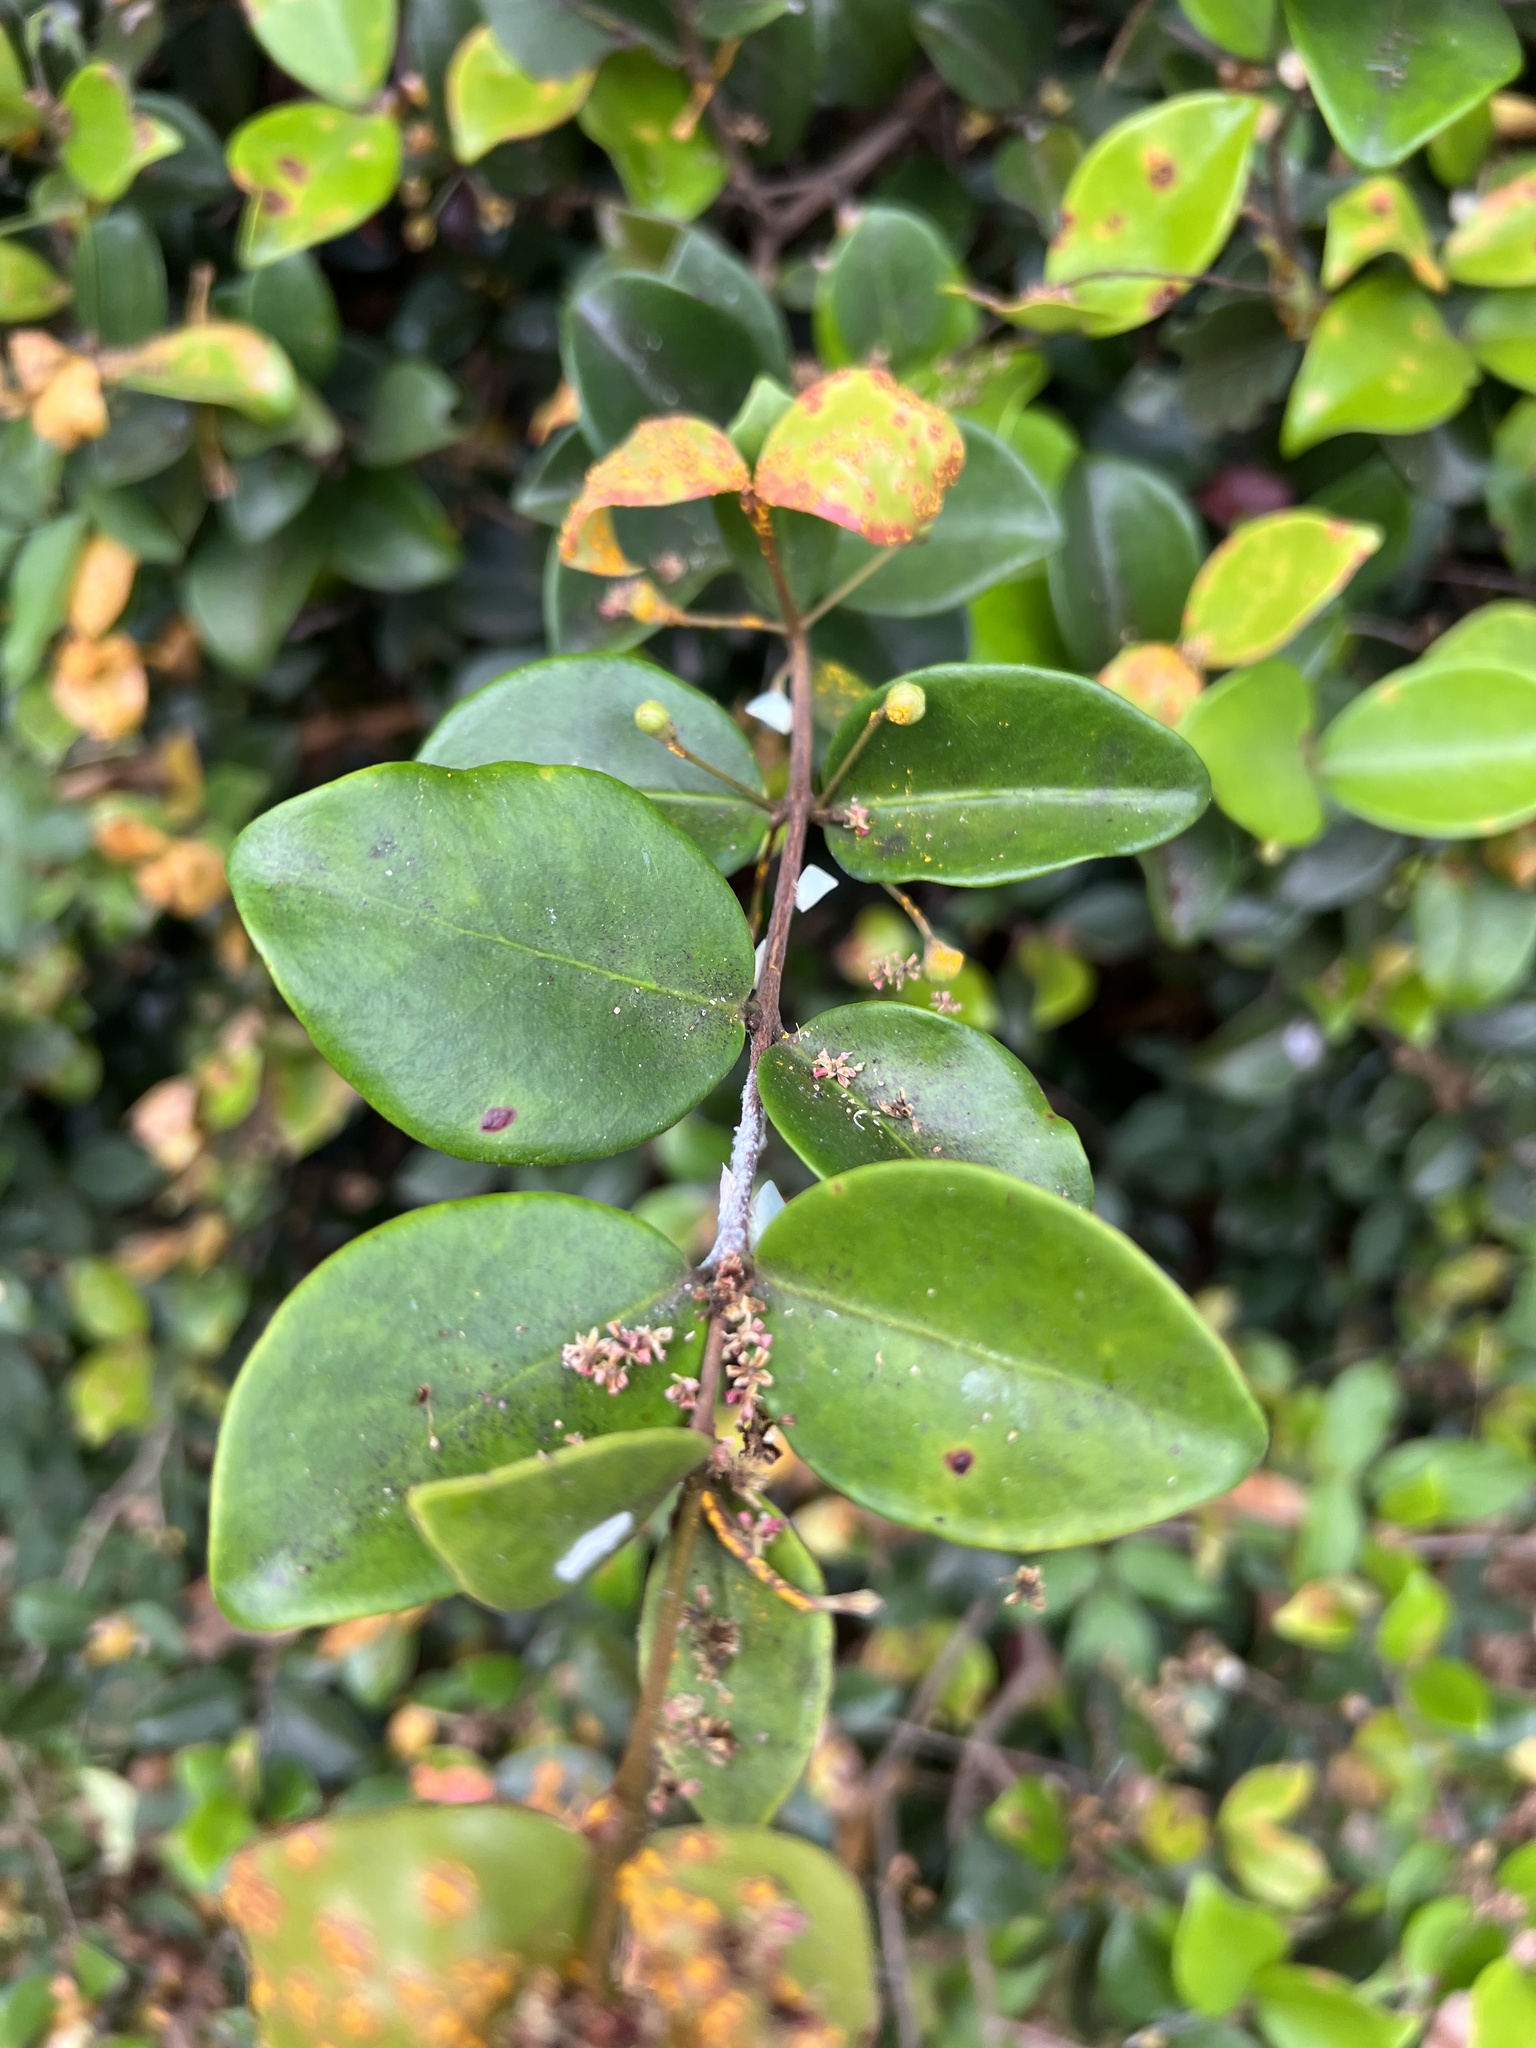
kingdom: Fungi
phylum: Basidiomycota
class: Pucciniomycetes
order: Pucciniales
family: Sphaerophragmiaceae
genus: Austropuccinia
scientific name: Austropuccinia psidii
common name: Myrtle rust
